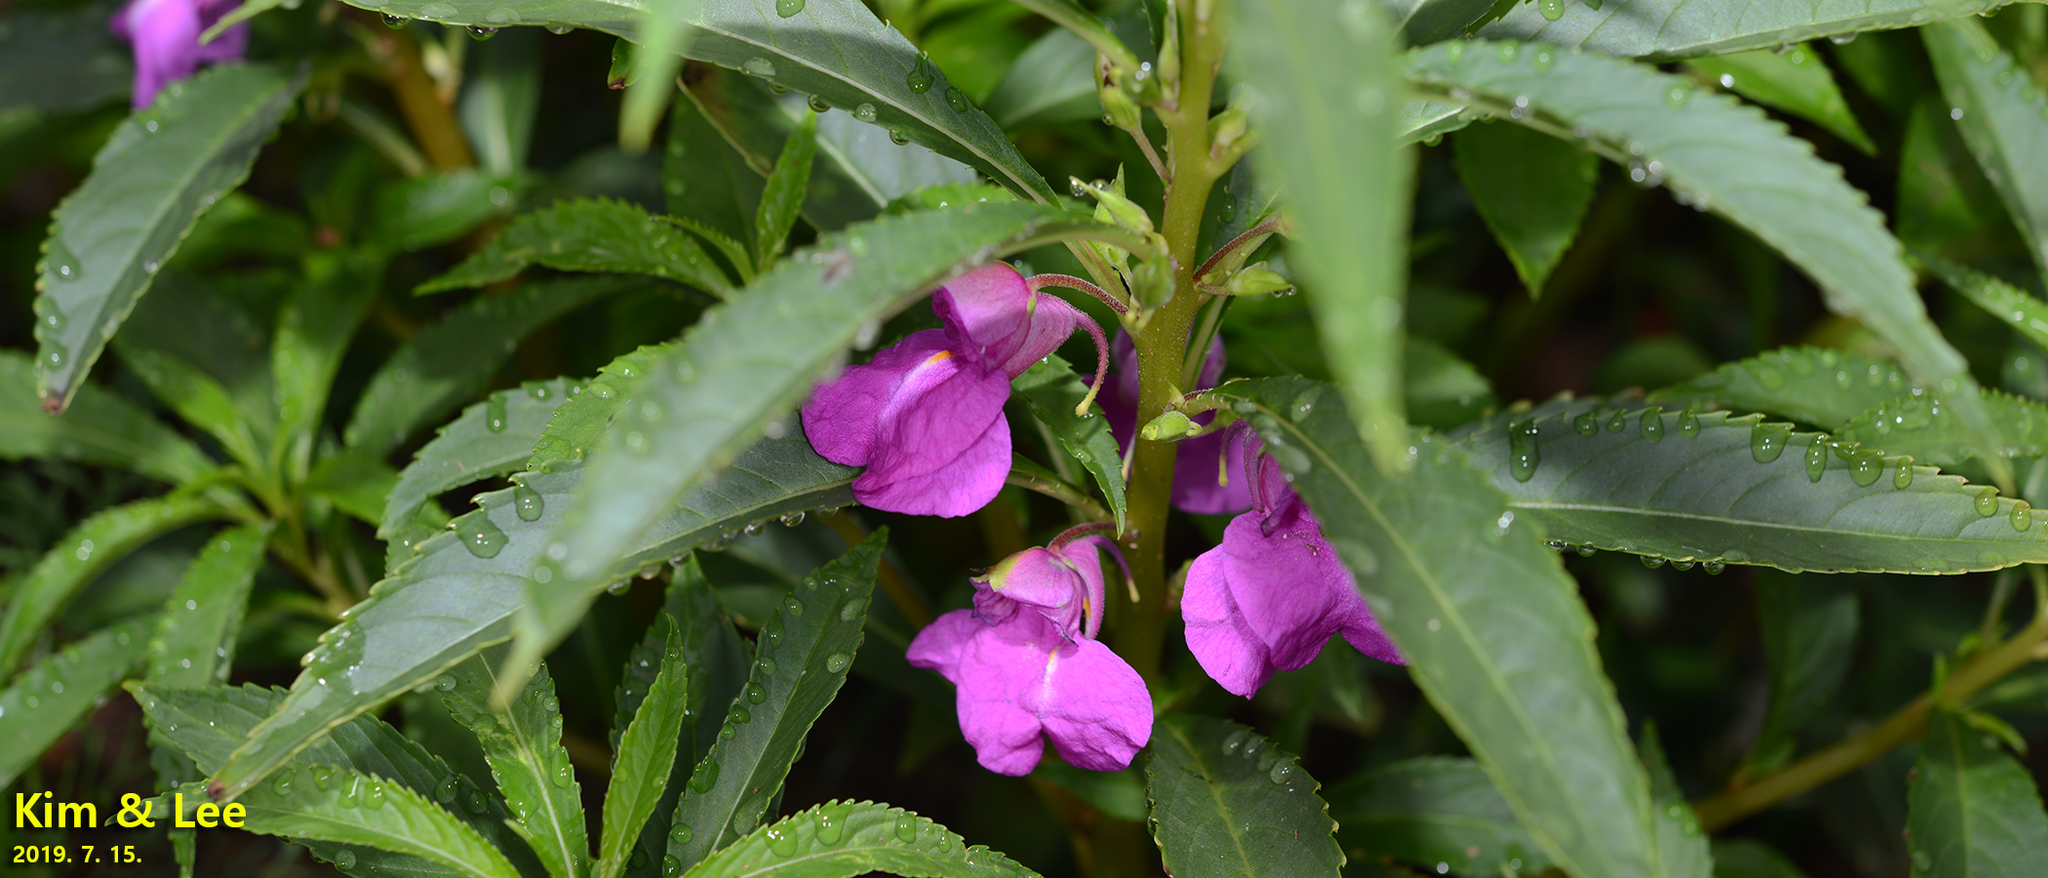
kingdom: Plantae
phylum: Tracheophyta
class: Magnoliopsida
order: Ericales
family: Balsaminaceae
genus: Impatiens
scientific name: Impatiens balsamina
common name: Balsam
